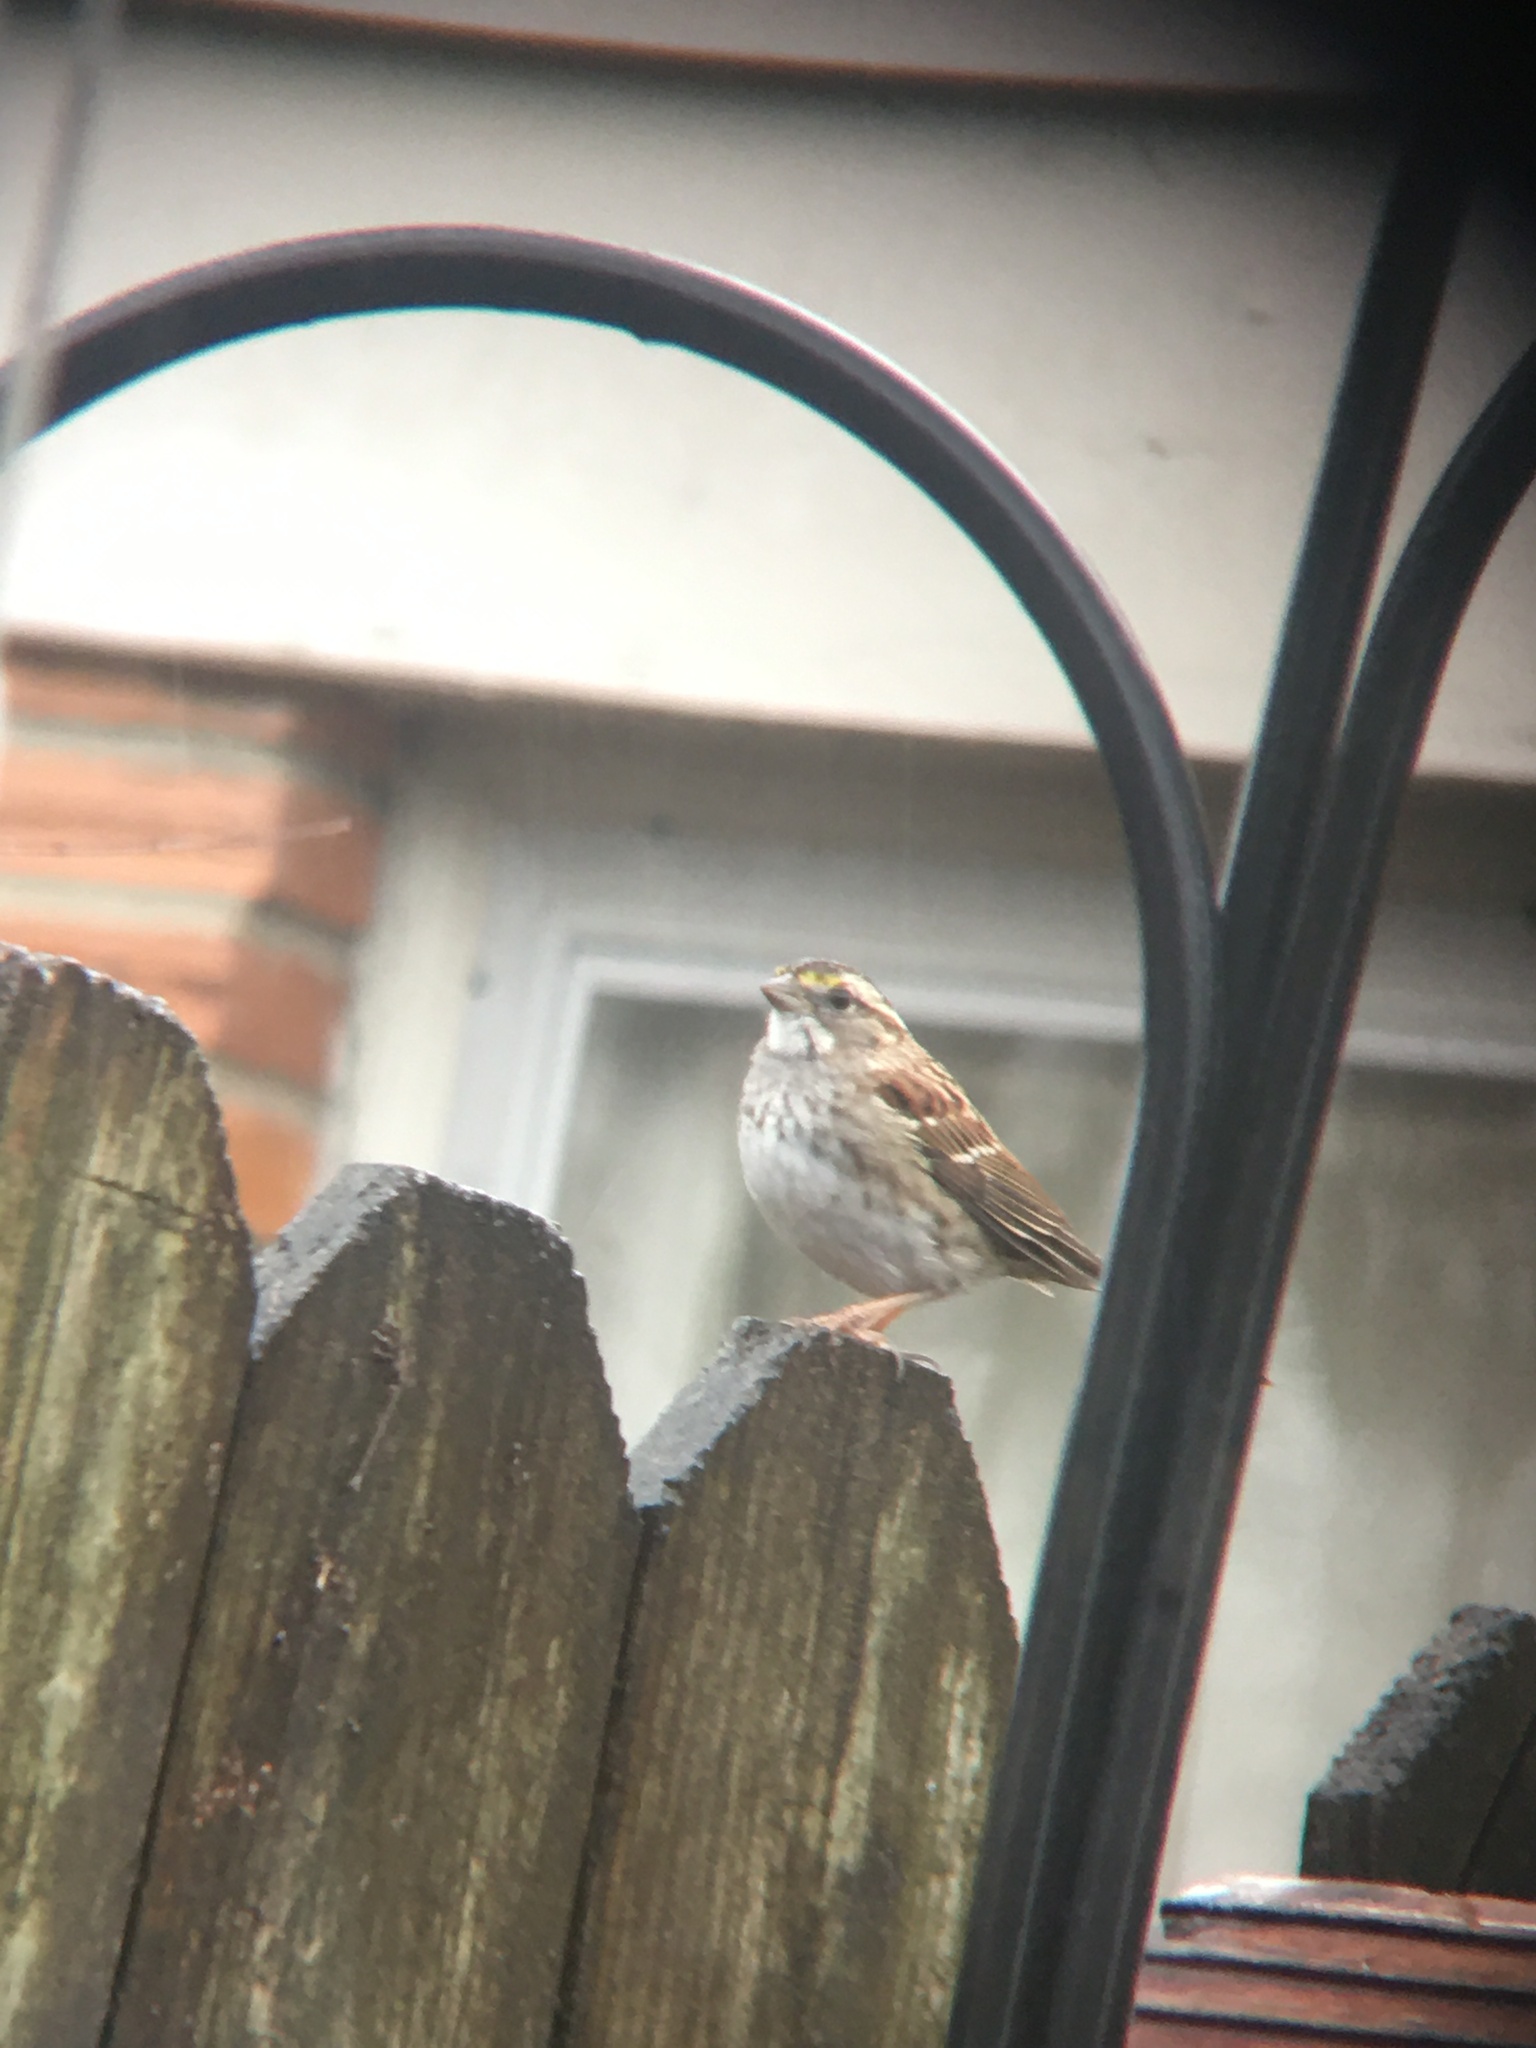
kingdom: Animalia
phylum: Chordata
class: Aves
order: Passeriformes
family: Passerellidae
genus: Zonotrichia
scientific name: Zonotrichia albicollis
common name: White-throated sparrow
